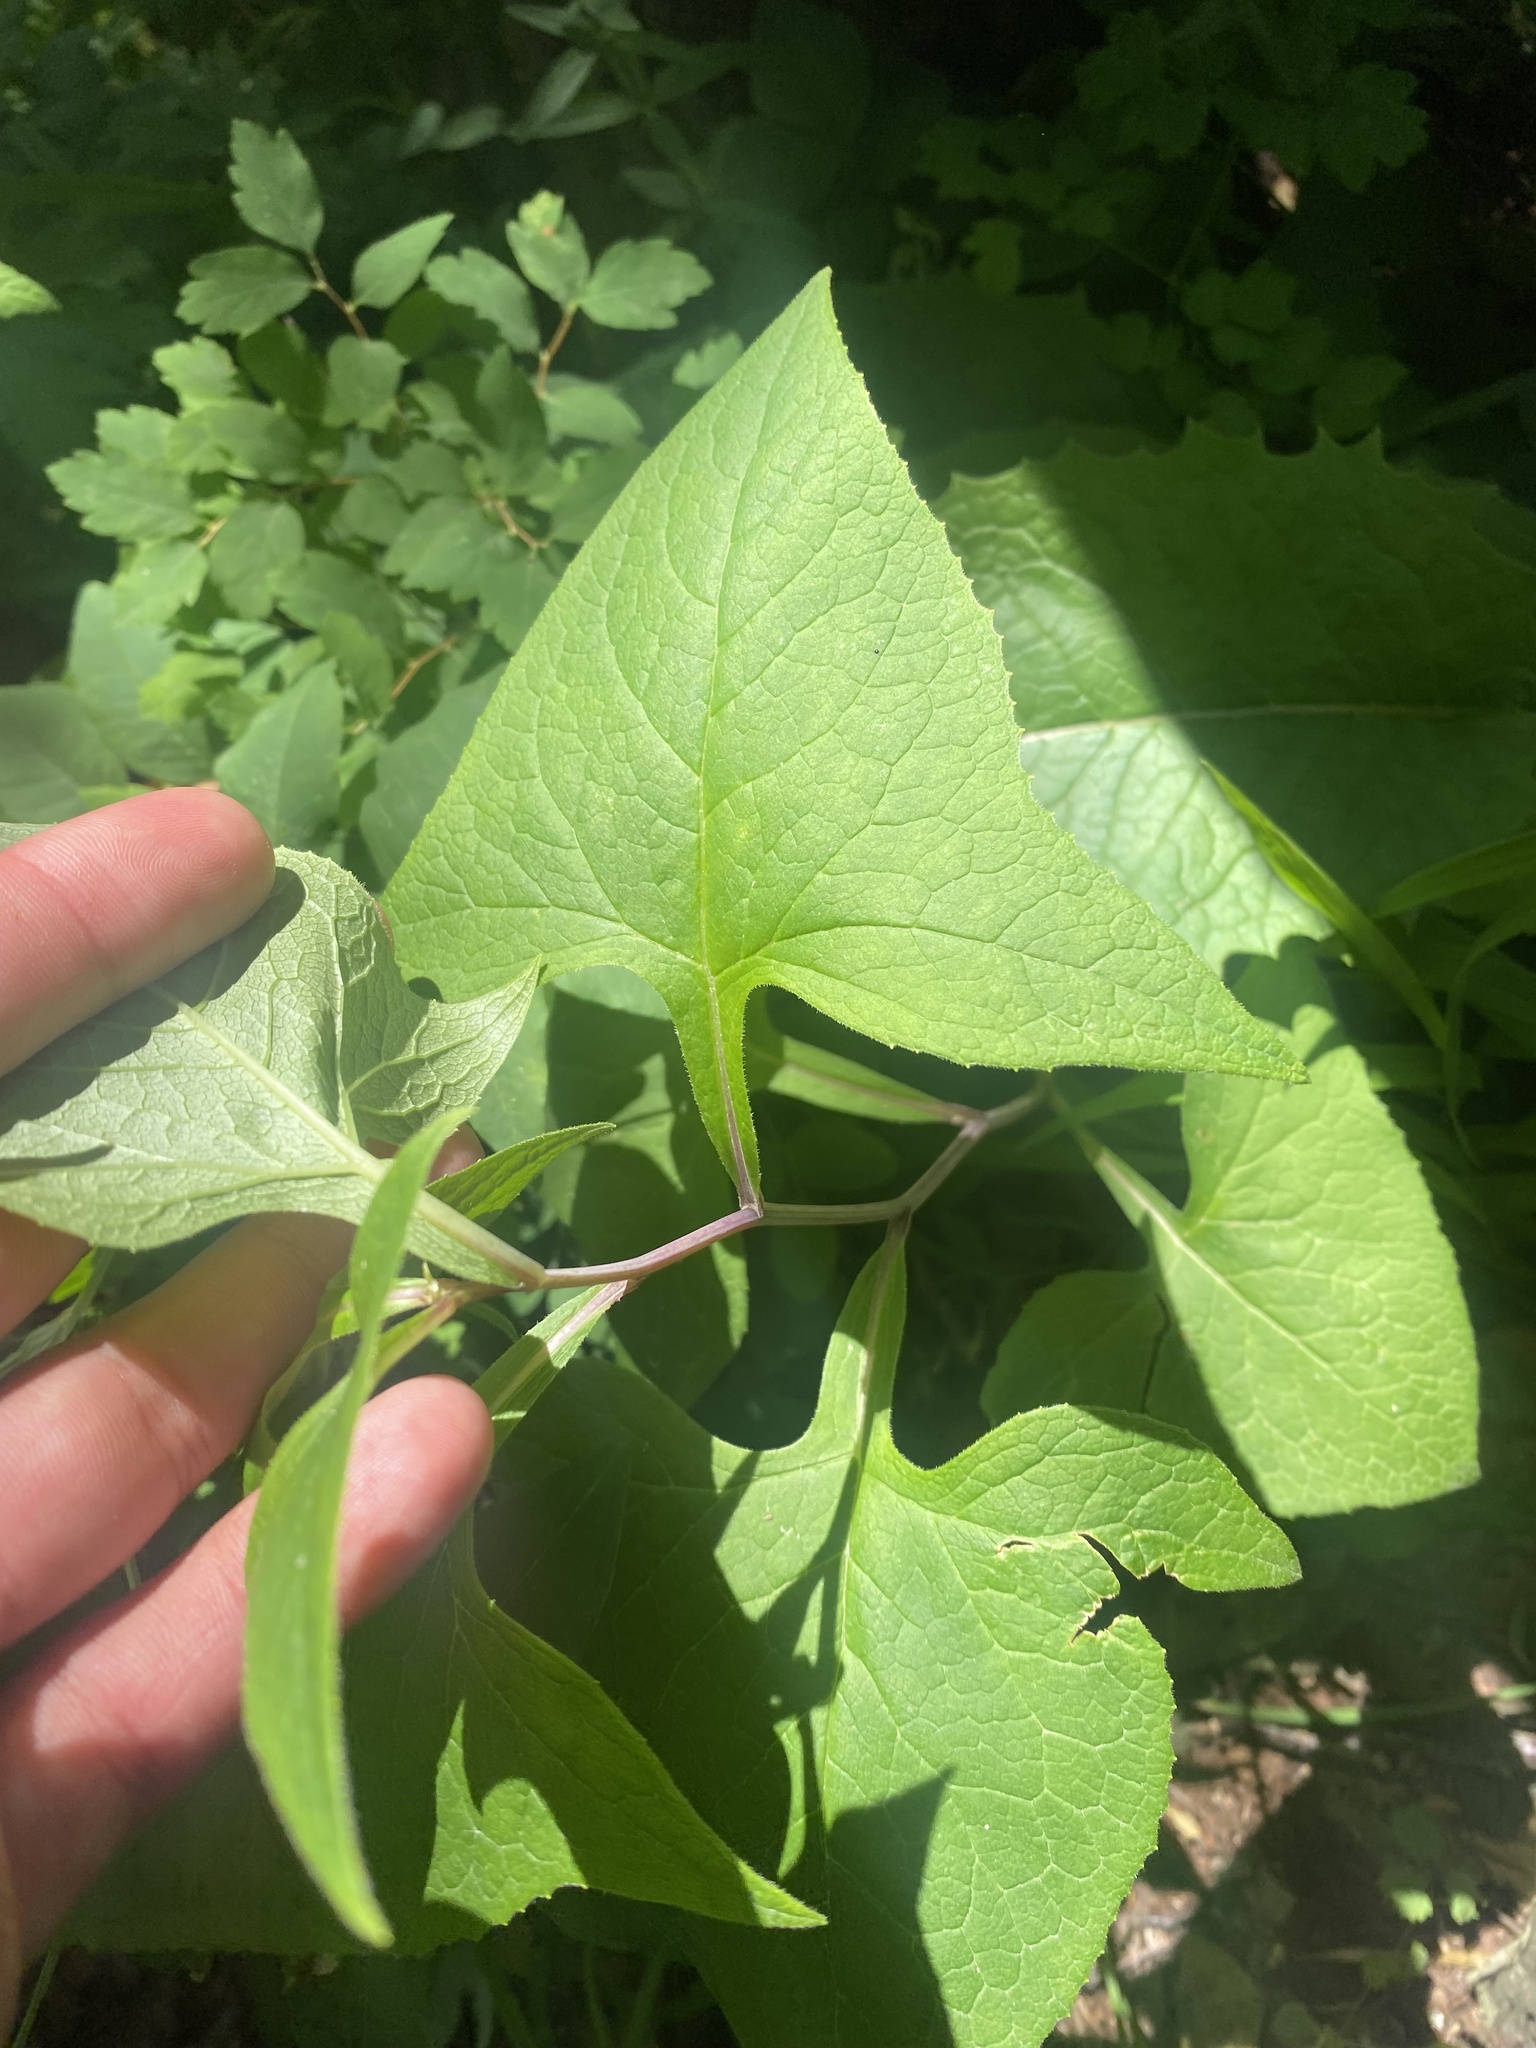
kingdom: Plantae
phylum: Tracheophyta
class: Magnoliopsida
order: Asterales
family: Asteraceae
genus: Parasenecio
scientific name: Parasenecio hastatus
